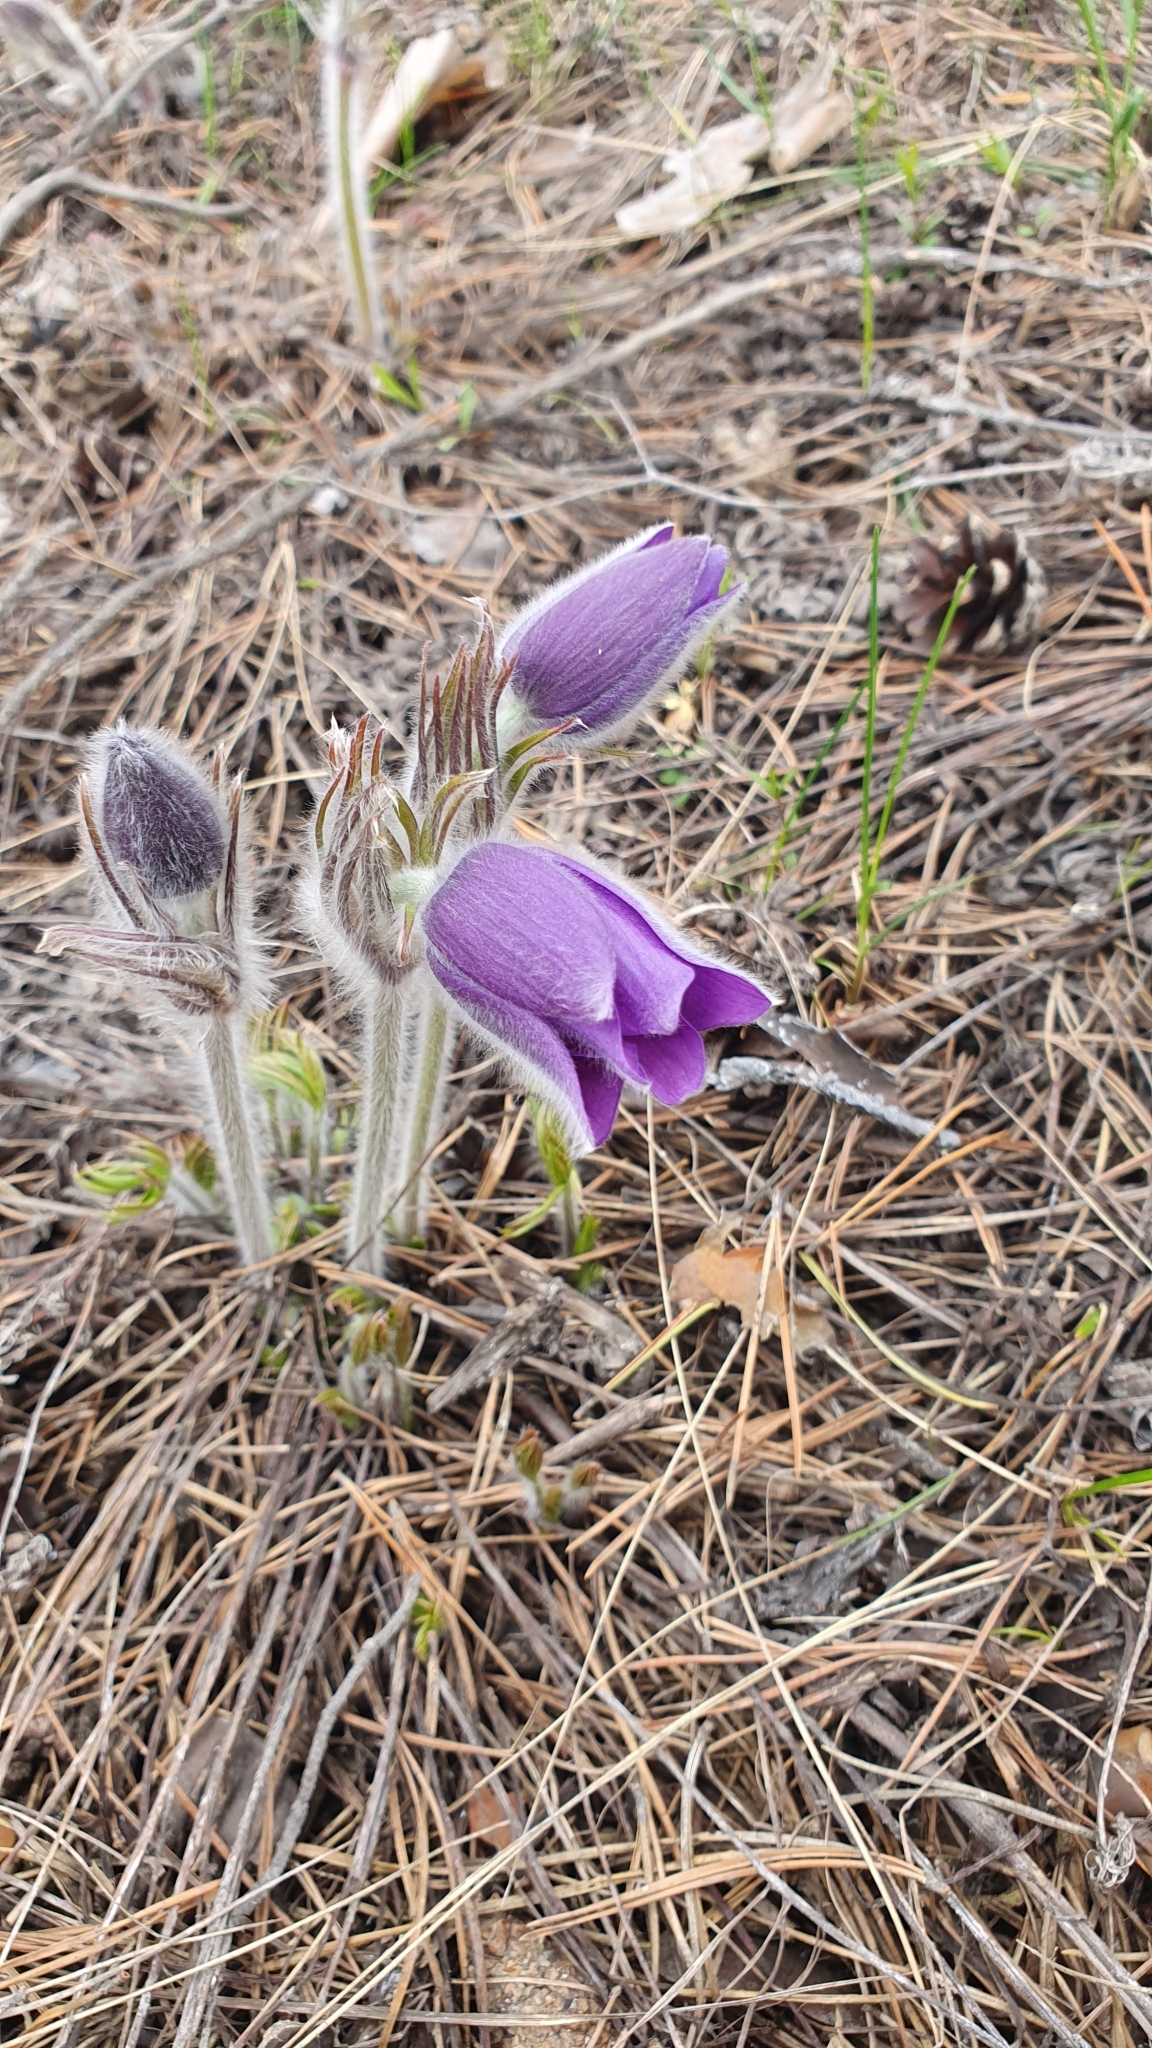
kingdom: Plantae
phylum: Tracheophyta
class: Magnoliopsida
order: Ranunculales
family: Ranunculaceae
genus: Pulsatilla
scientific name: Pulsatilla patens
